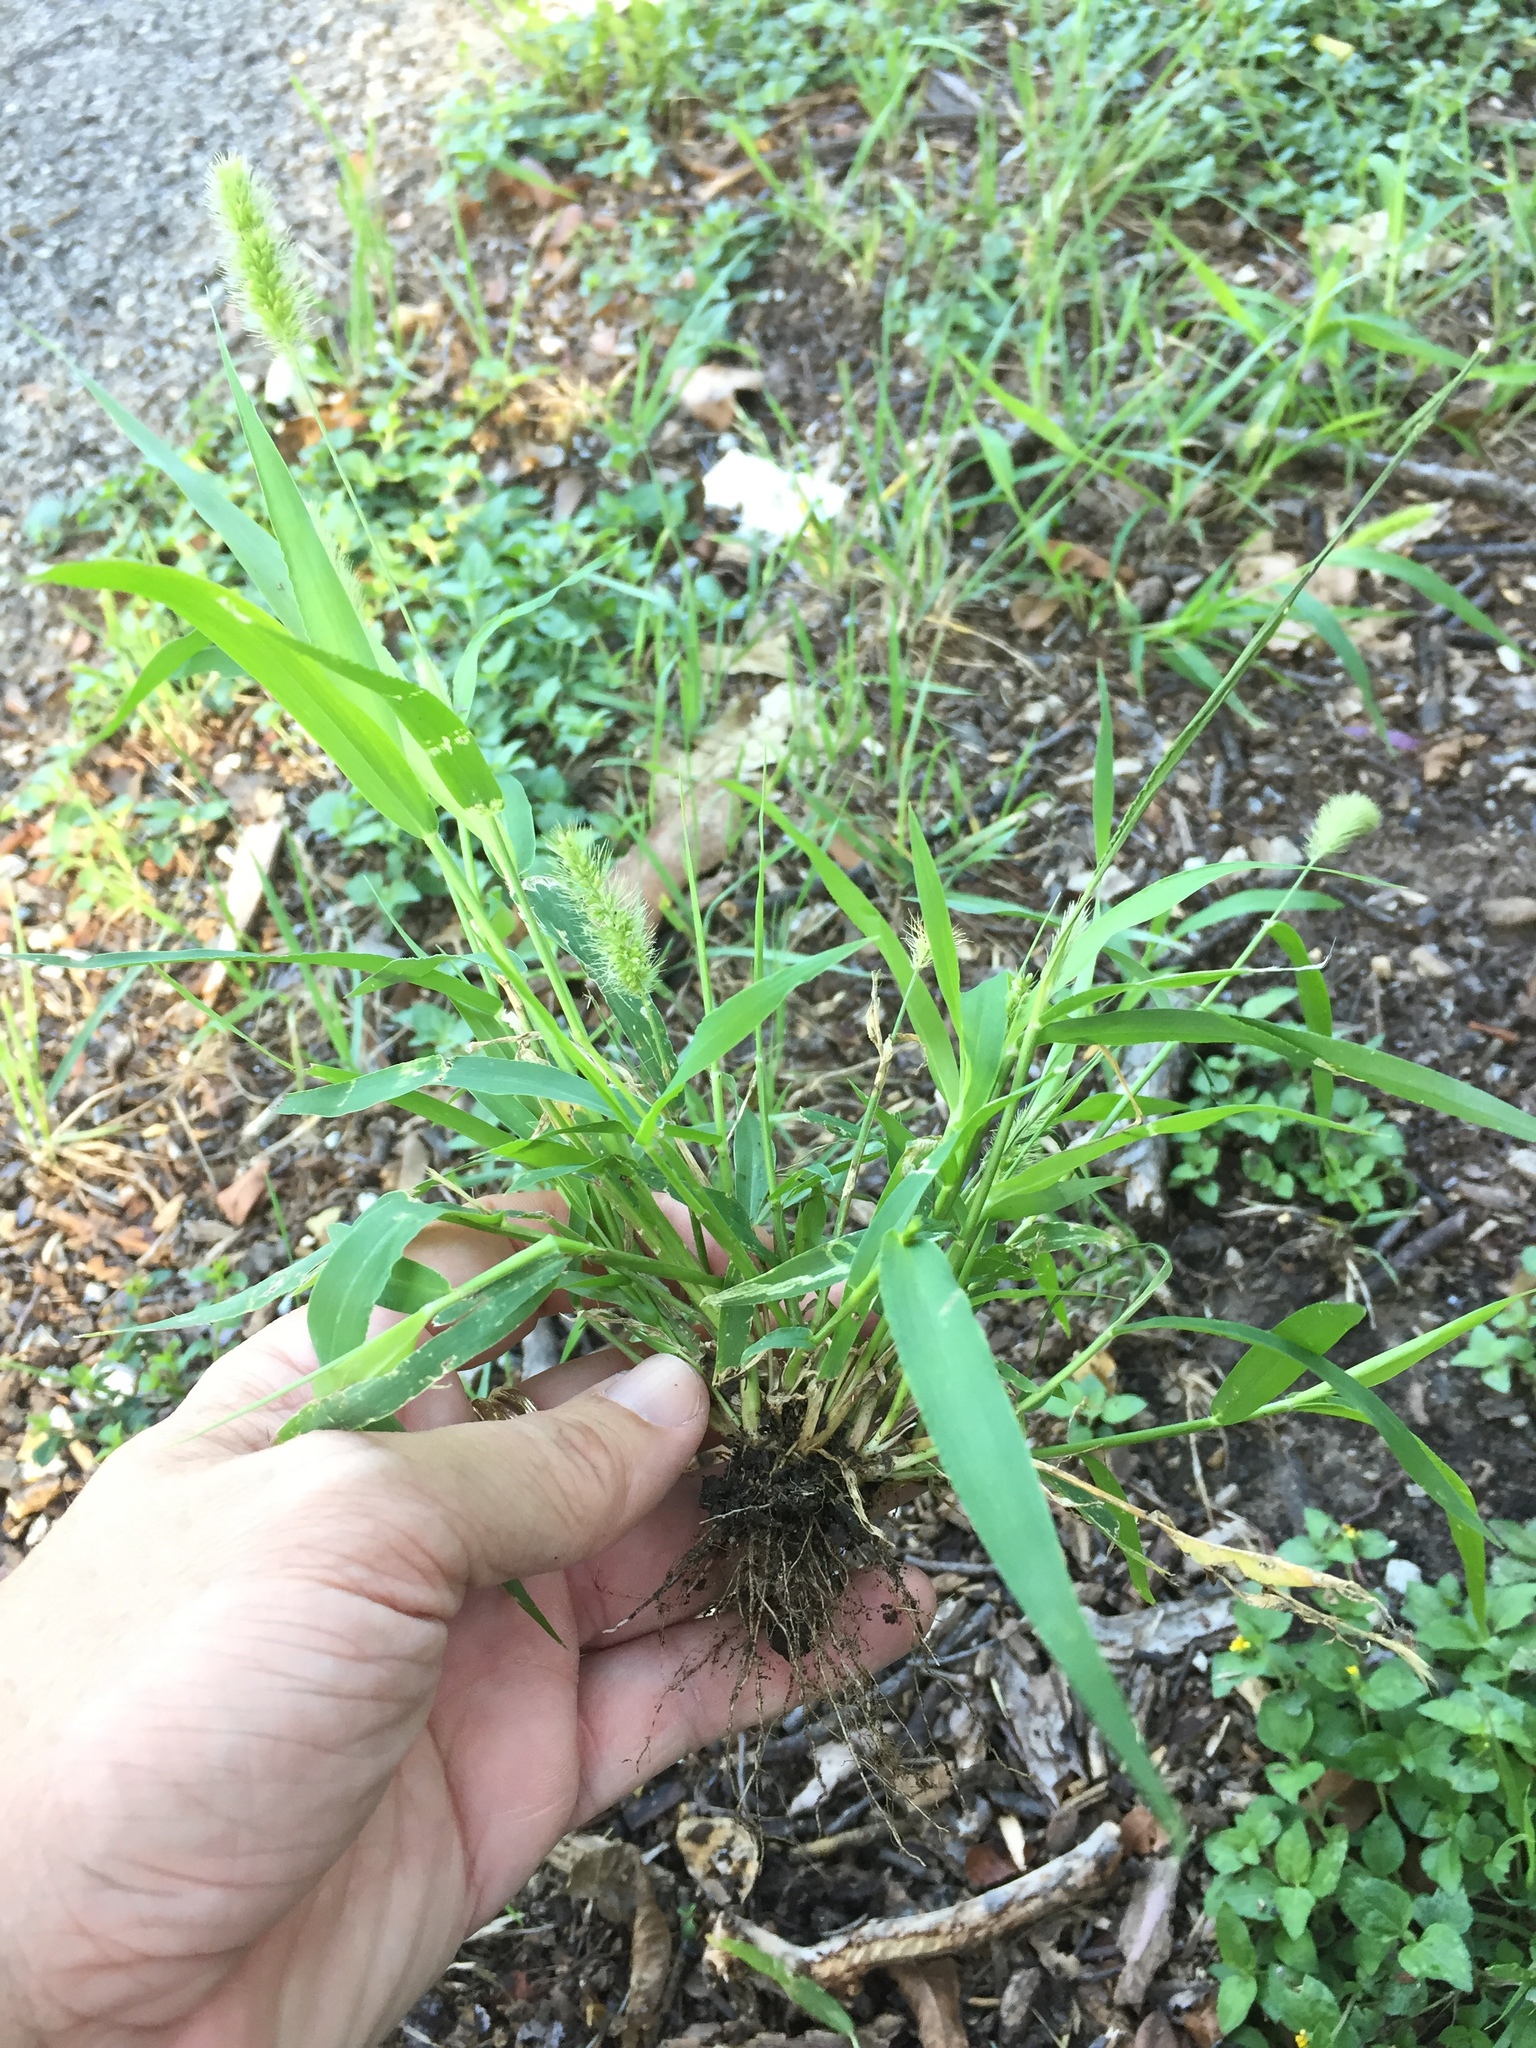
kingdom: Plantae
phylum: Tracheophyta
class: Liliopsida
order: Poales
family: Poaceae
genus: Setaria
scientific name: Setaria viridis
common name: Green bristlegrass
